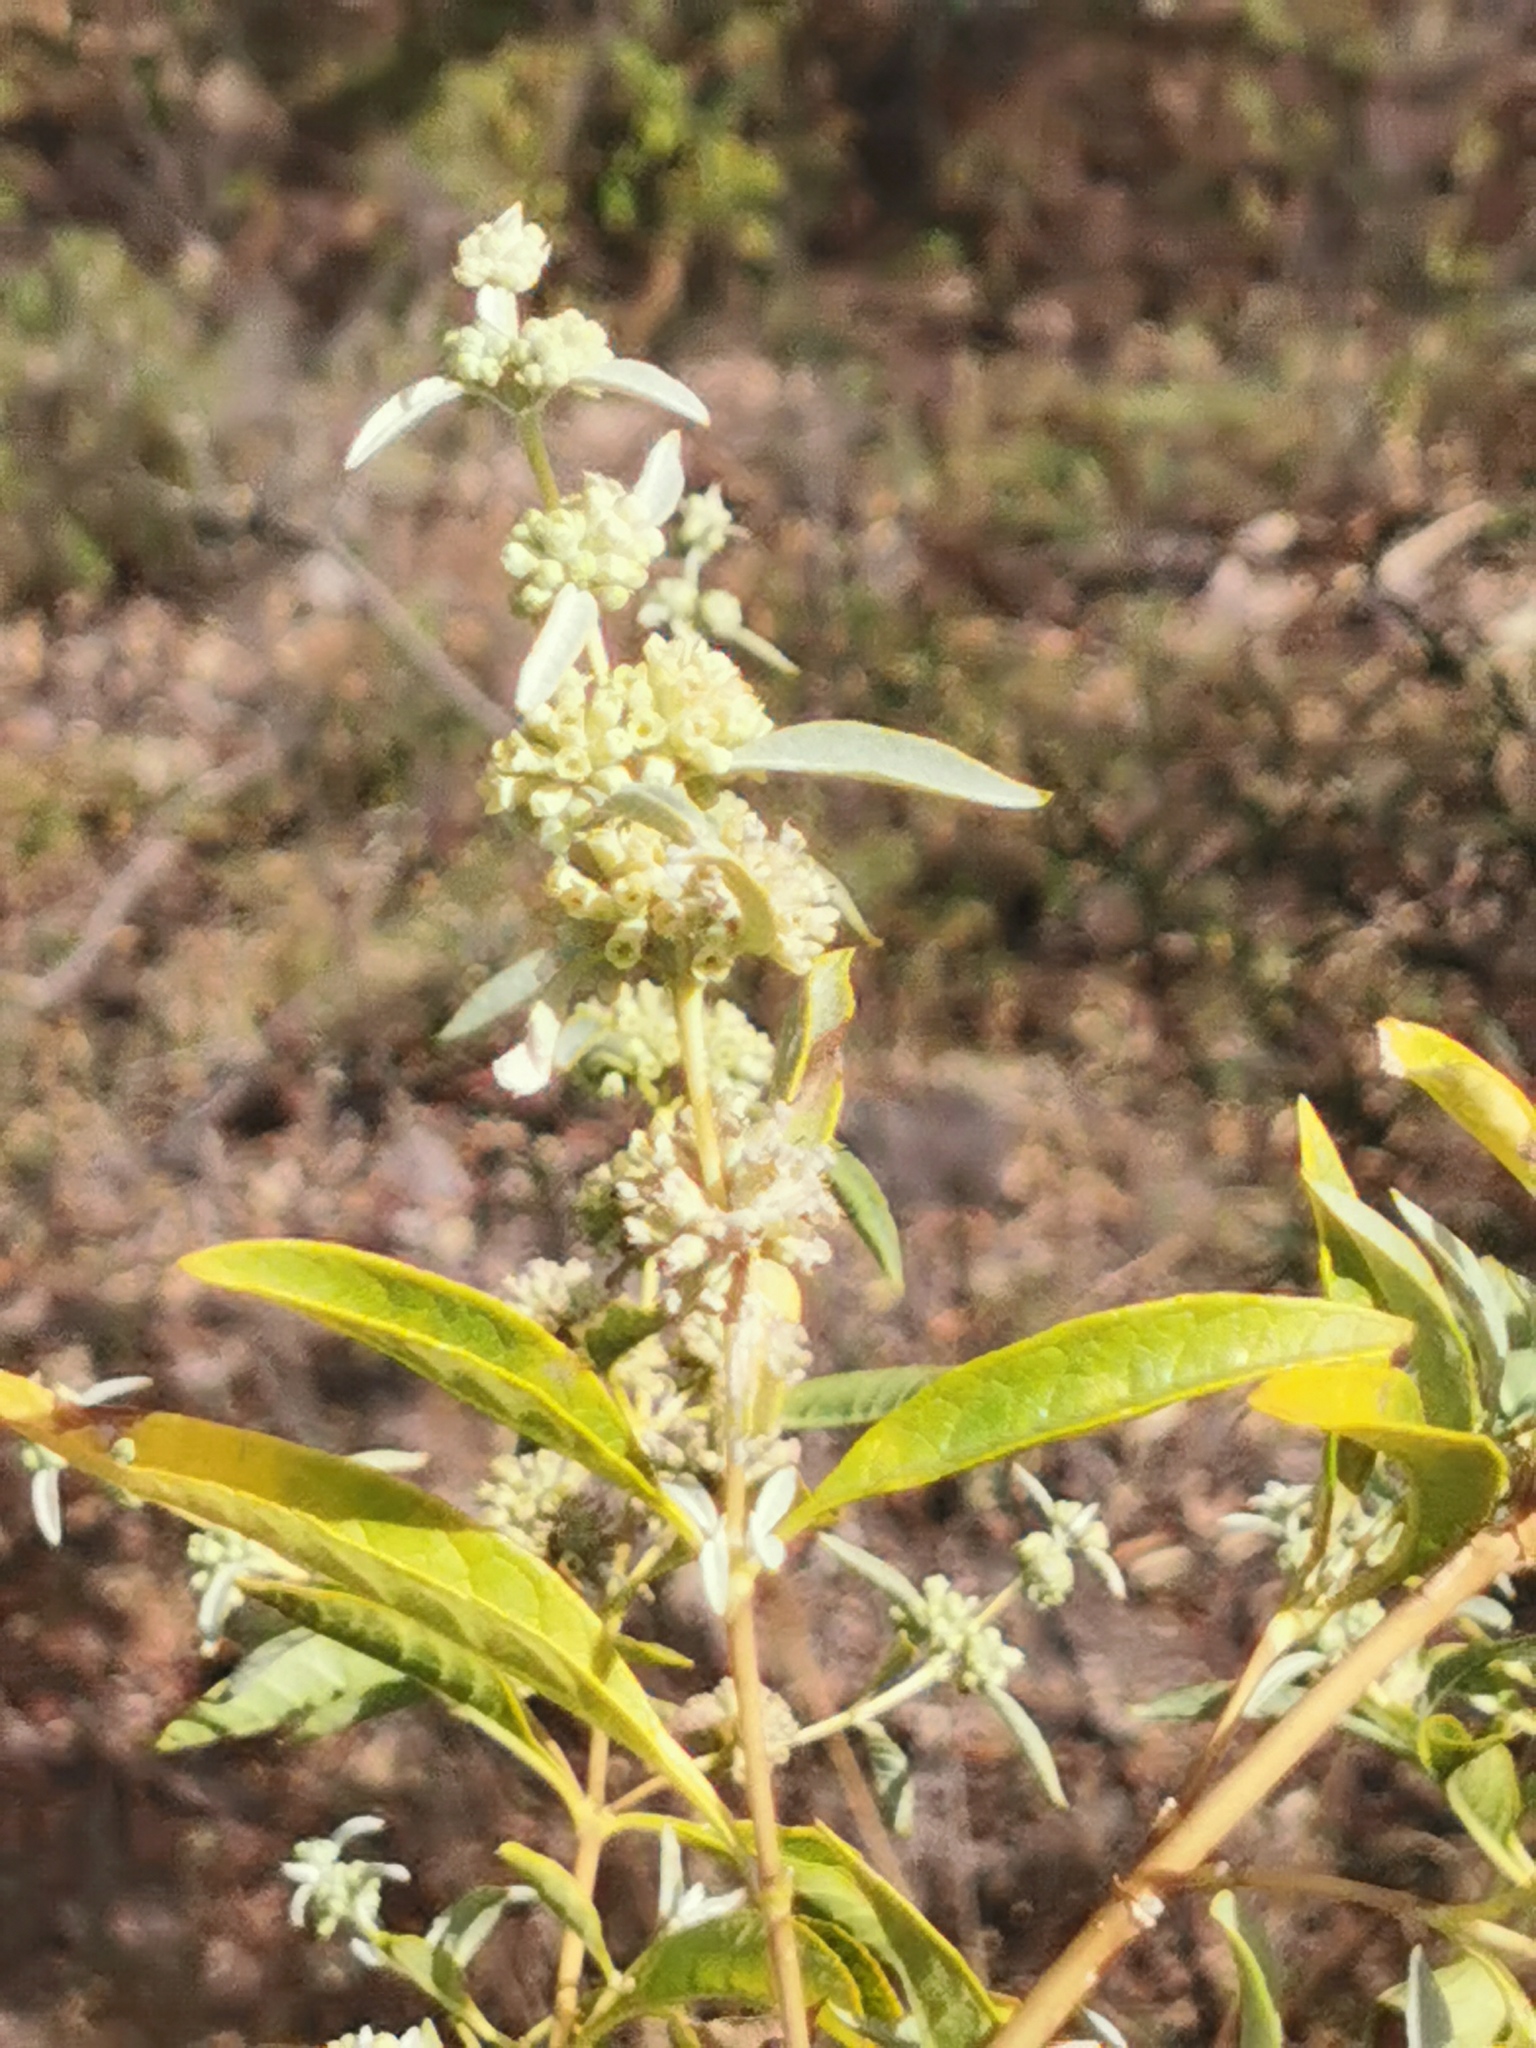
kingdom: Plantae
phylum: Tracheophyta
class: Magnoliopsida
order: Lamiales
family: Scrophulariaceae
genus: Buddleja
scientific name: Buddleja sessiliflora
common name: Rio grande butterfly-bush
